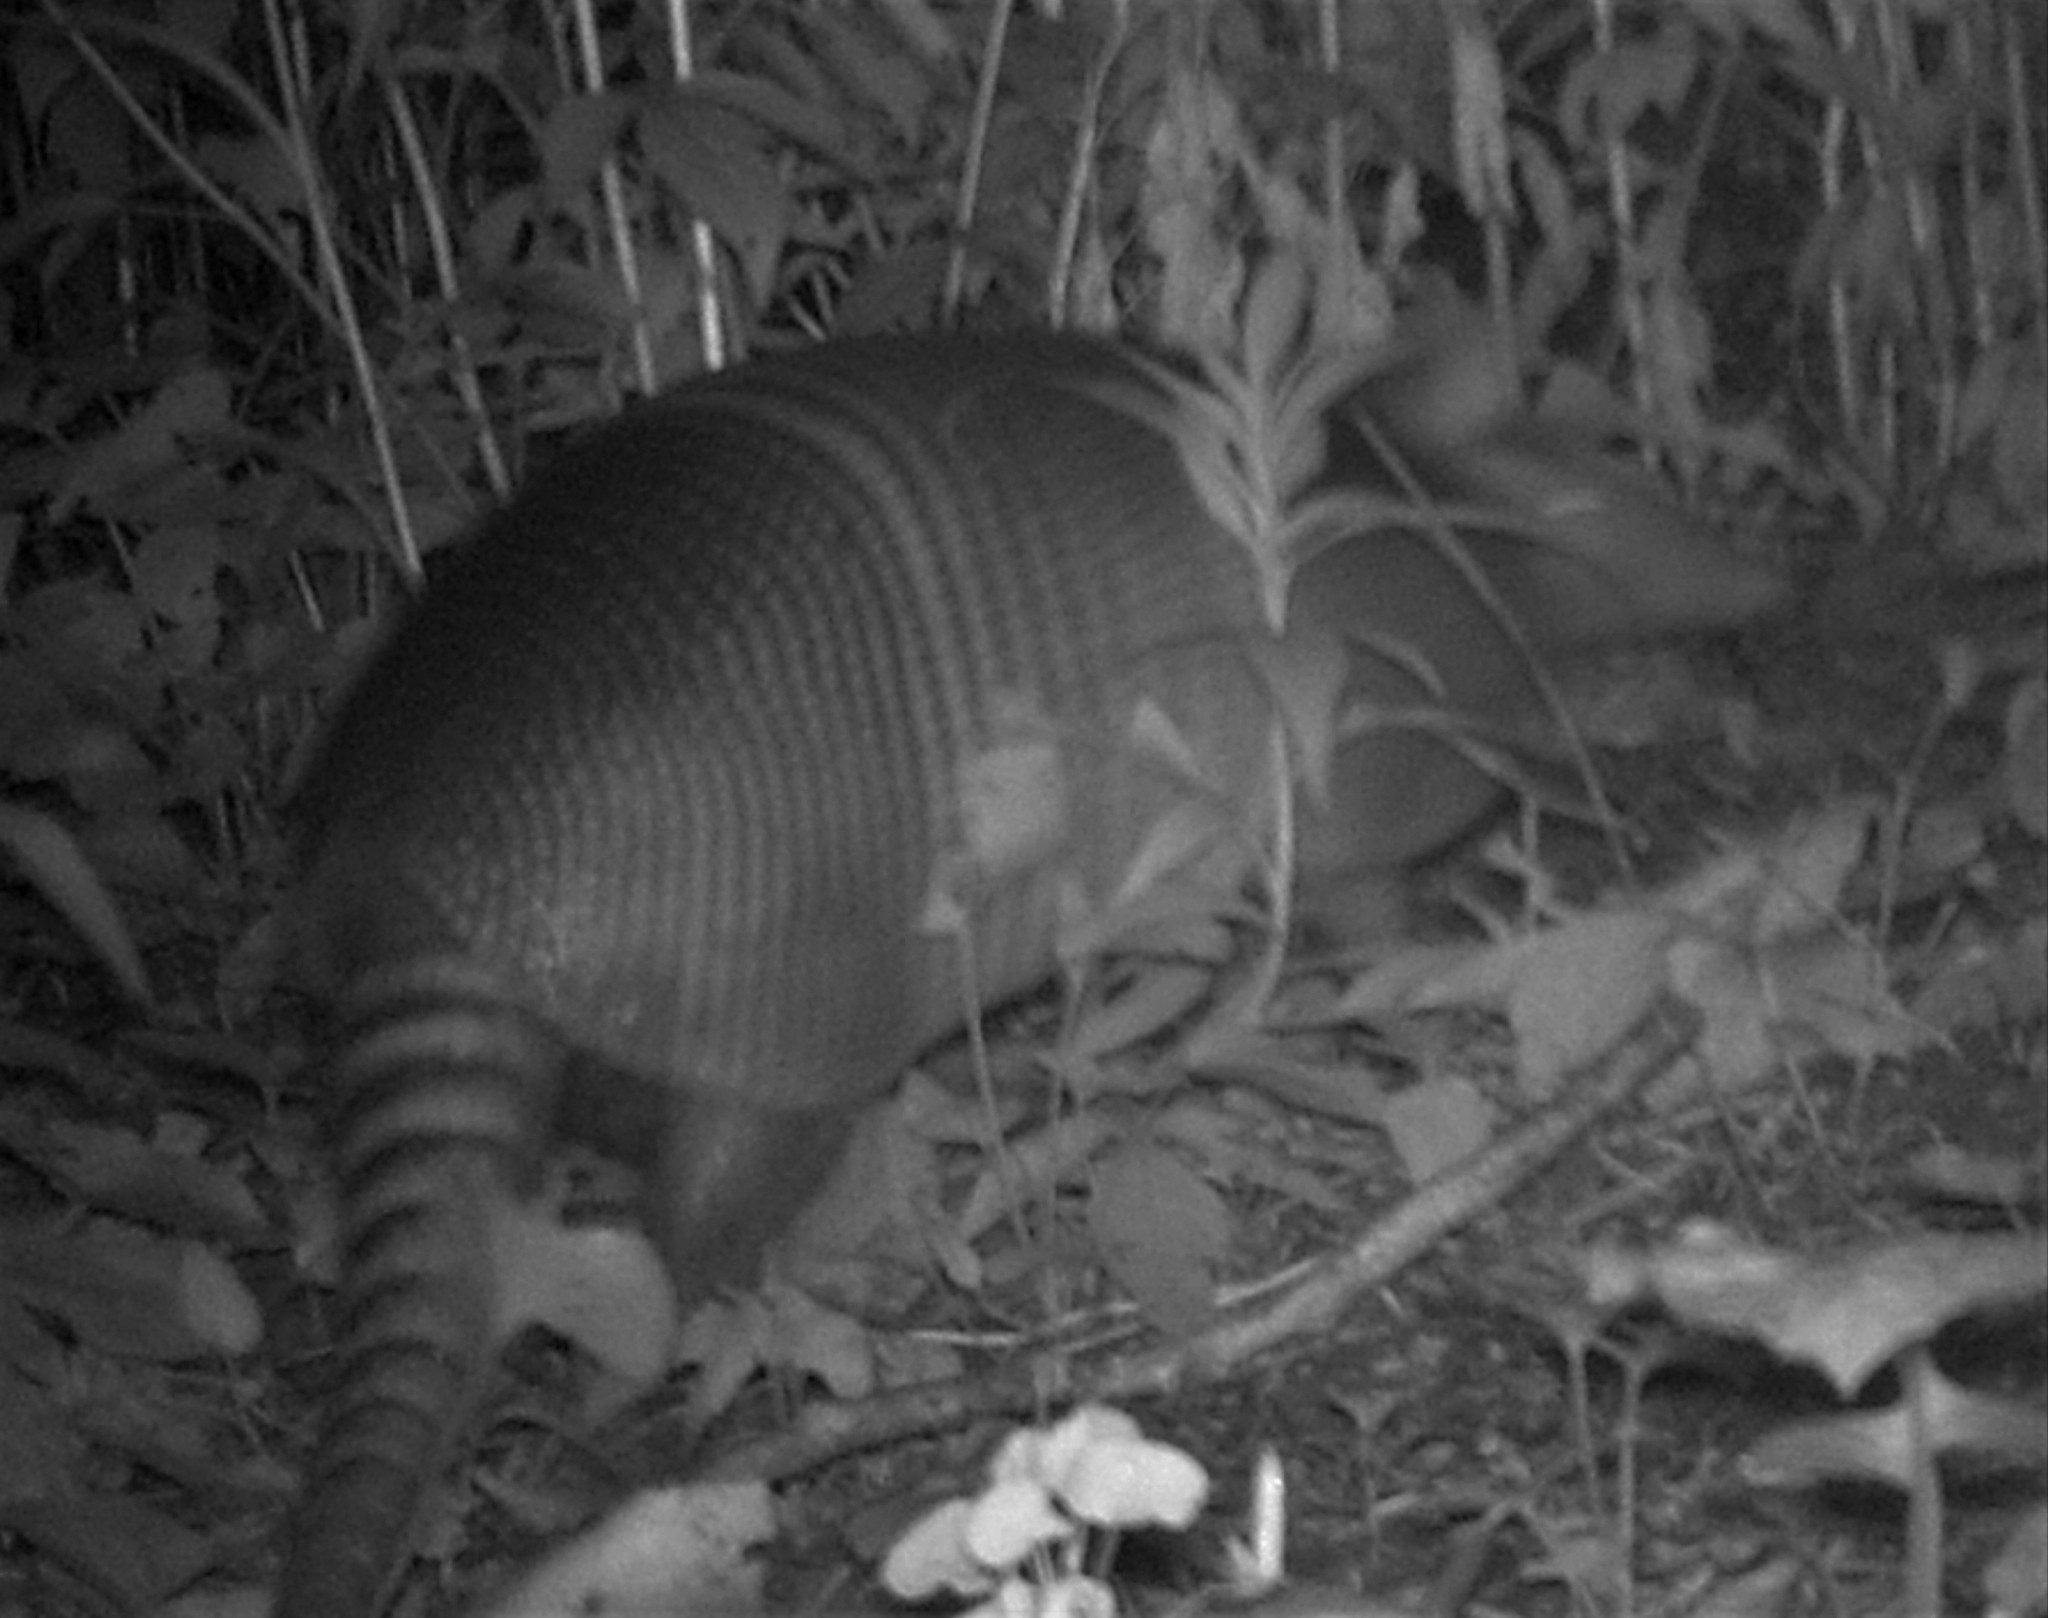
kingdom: Animalia
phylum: Chordata
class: Mammalia
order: Cingulata
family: Dasypodidae
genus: Dasypus
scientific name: Dasypus novemcinctus
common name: Nine-banded armadillo
